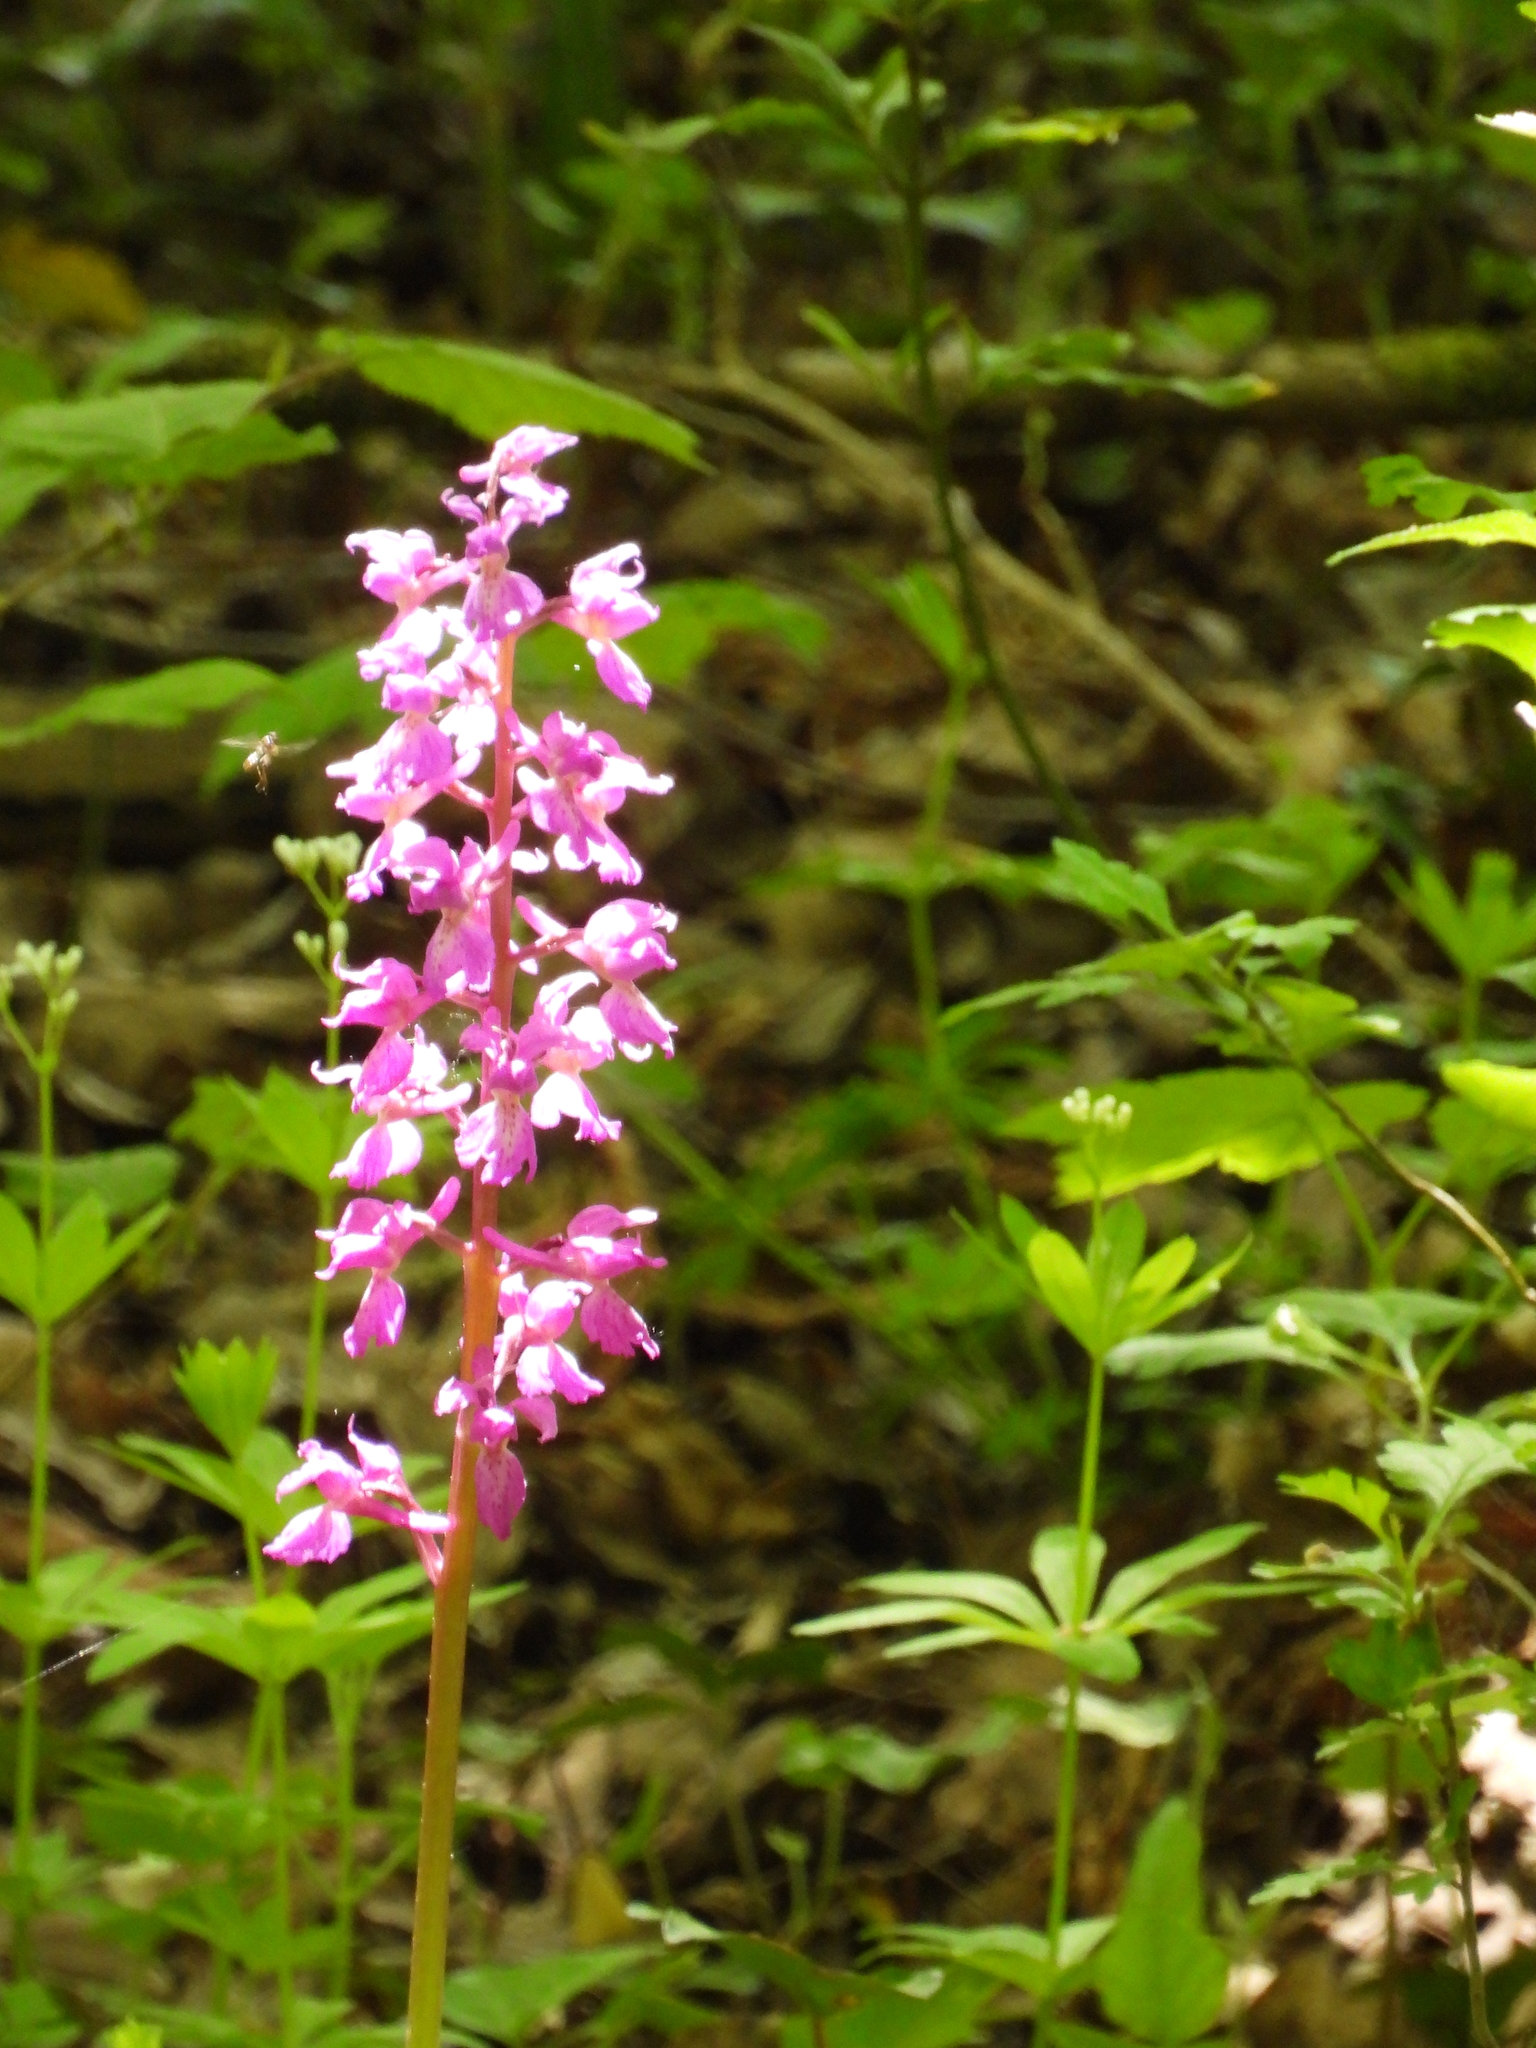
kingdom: Plantae
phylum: Tracheophyta
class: Liliopsida
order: Asparagales
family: Orchidaceae
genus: Orchis
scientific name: Orchis mascula
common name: Early-purple orchid
